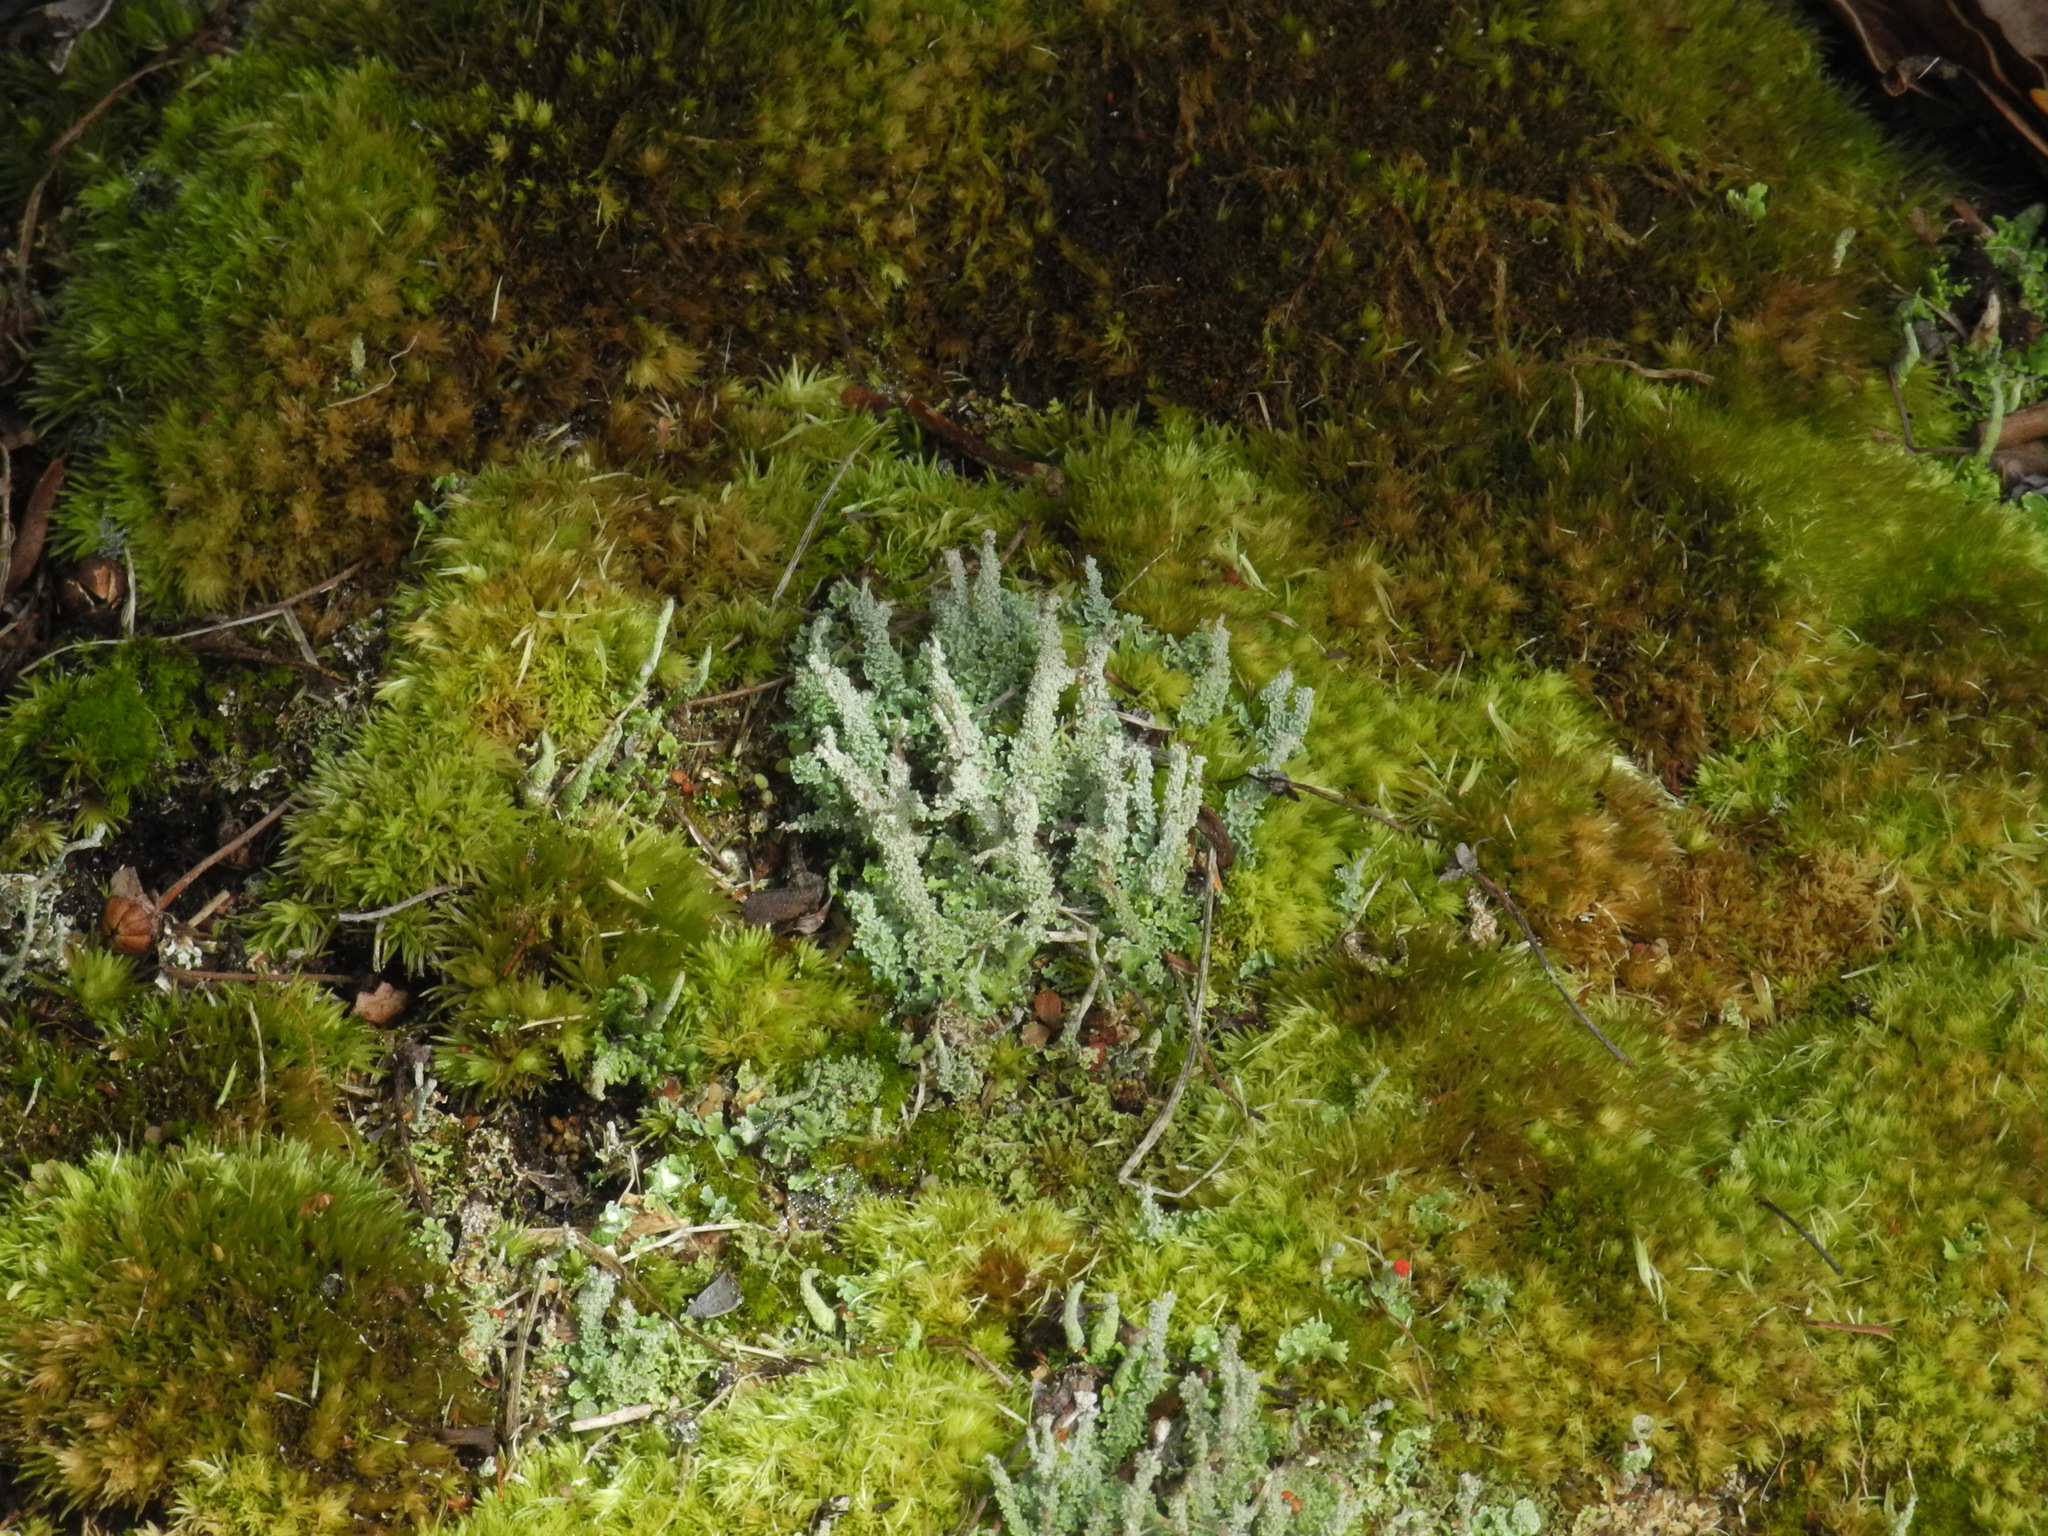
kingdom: Fungi
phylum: Ascomycota
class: Lecanoromycetes
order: Lecanorales
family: Cladoniaceae
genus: Cladonia
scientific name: Cladonia squamosa
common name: Dragon horn
